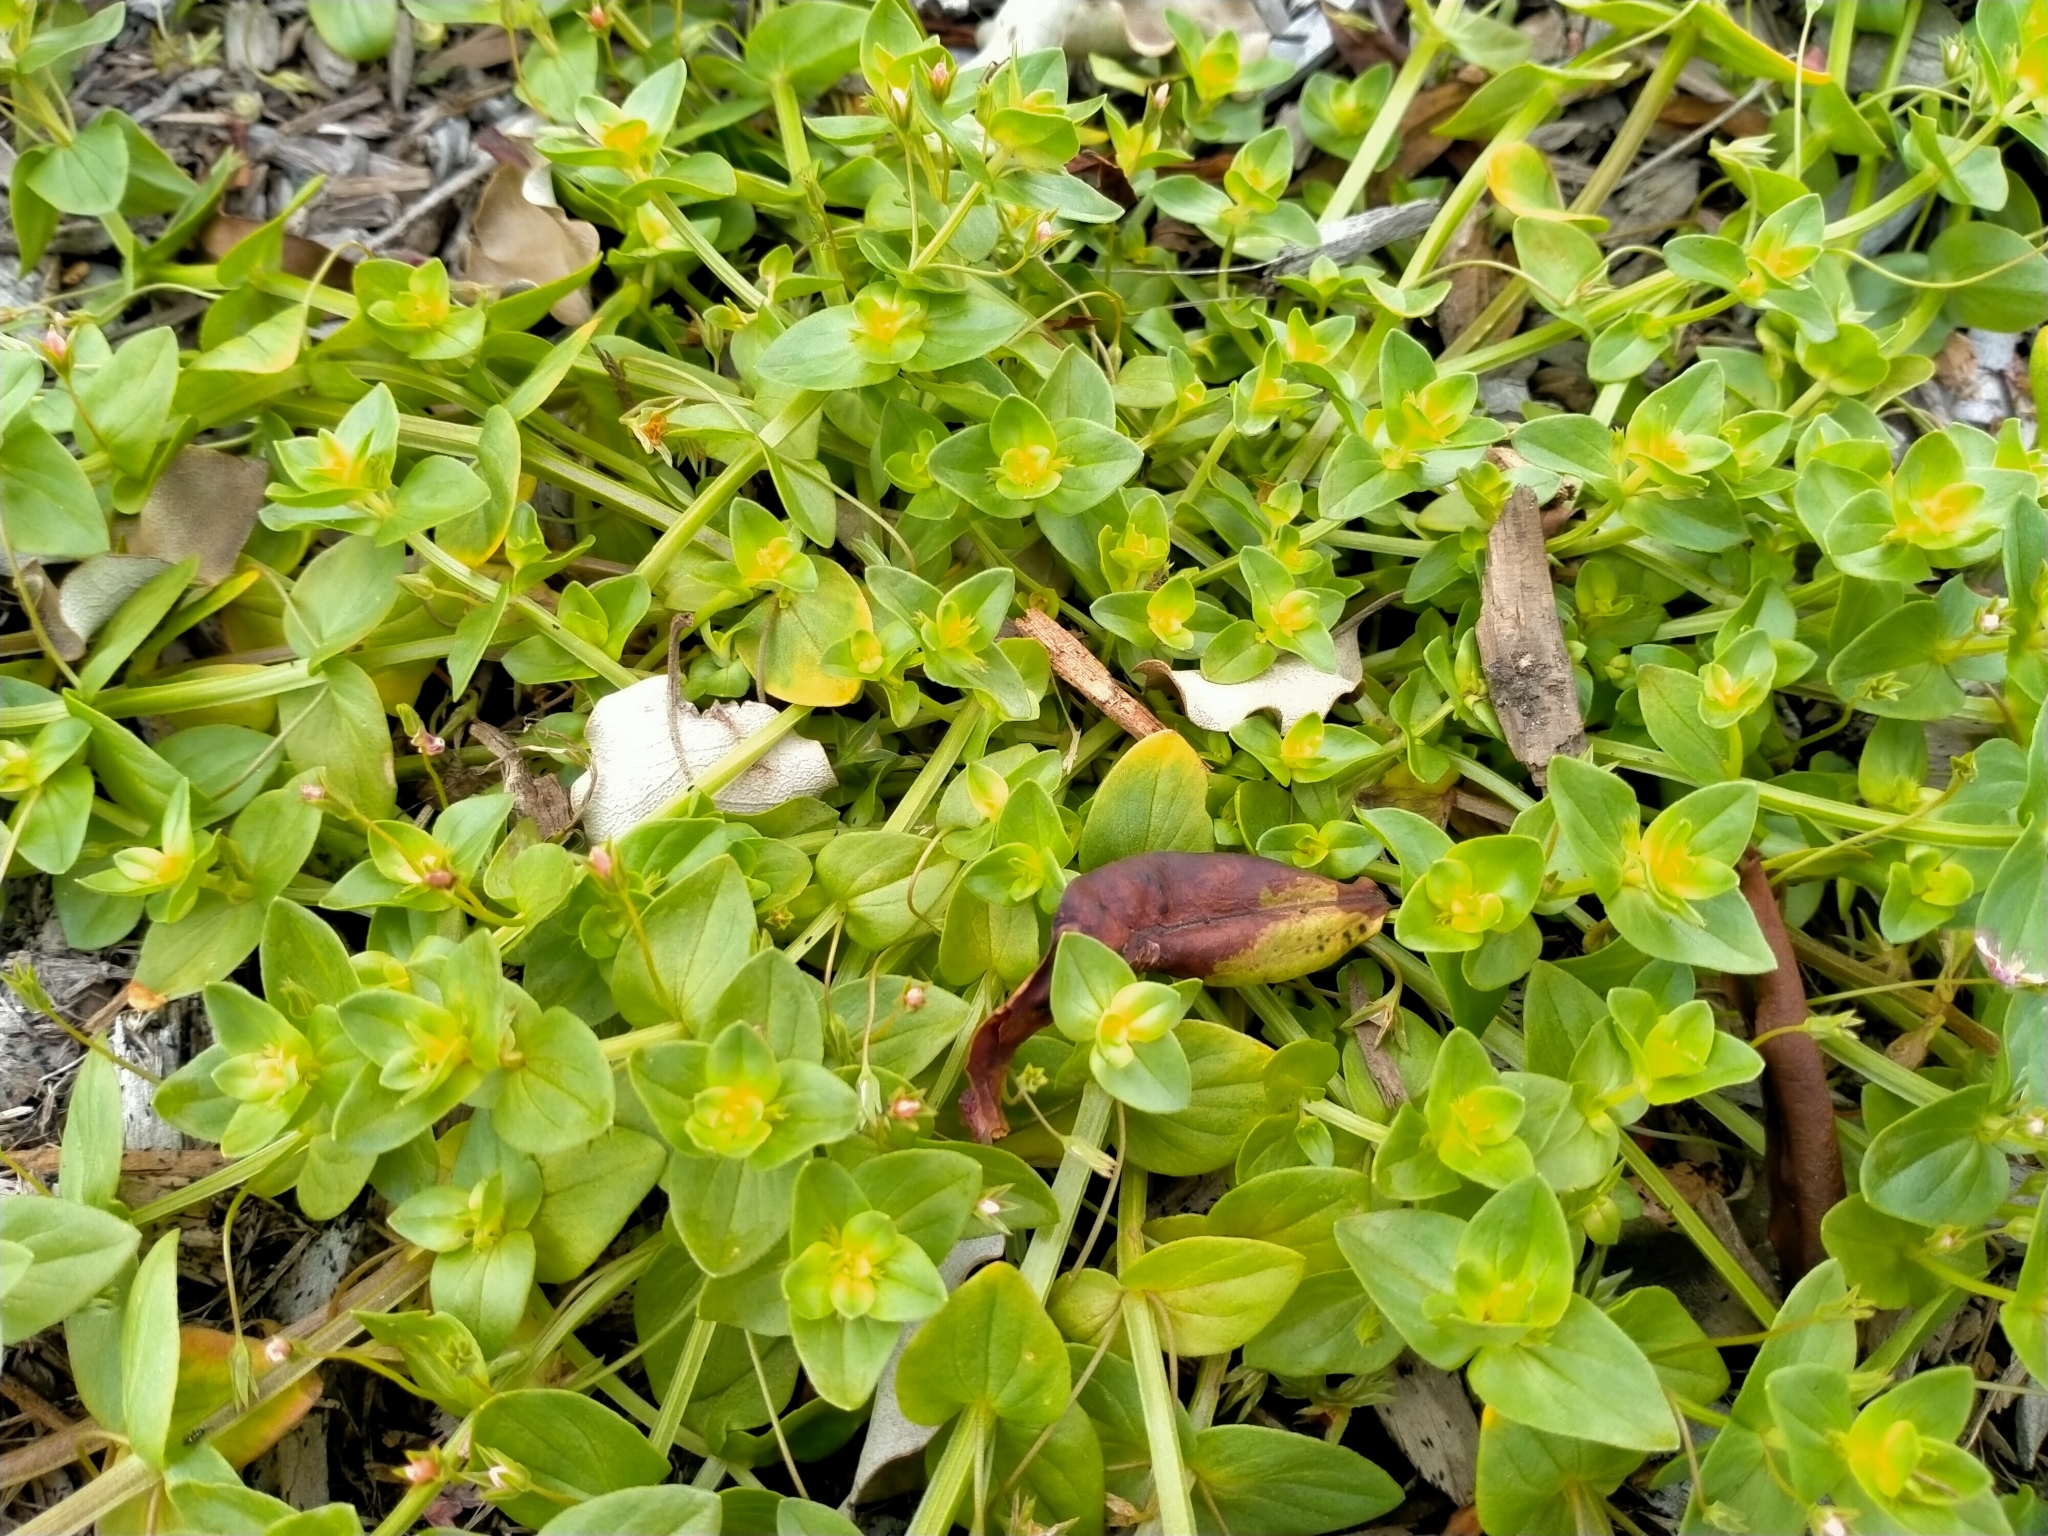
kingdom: Plantae
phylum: Tracheophyta
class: Magnoliopsida
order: Ericales
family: Primulaceae
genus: Lysimachia
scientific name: Lysimachia arvensis
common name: Scarlet pimpernel
